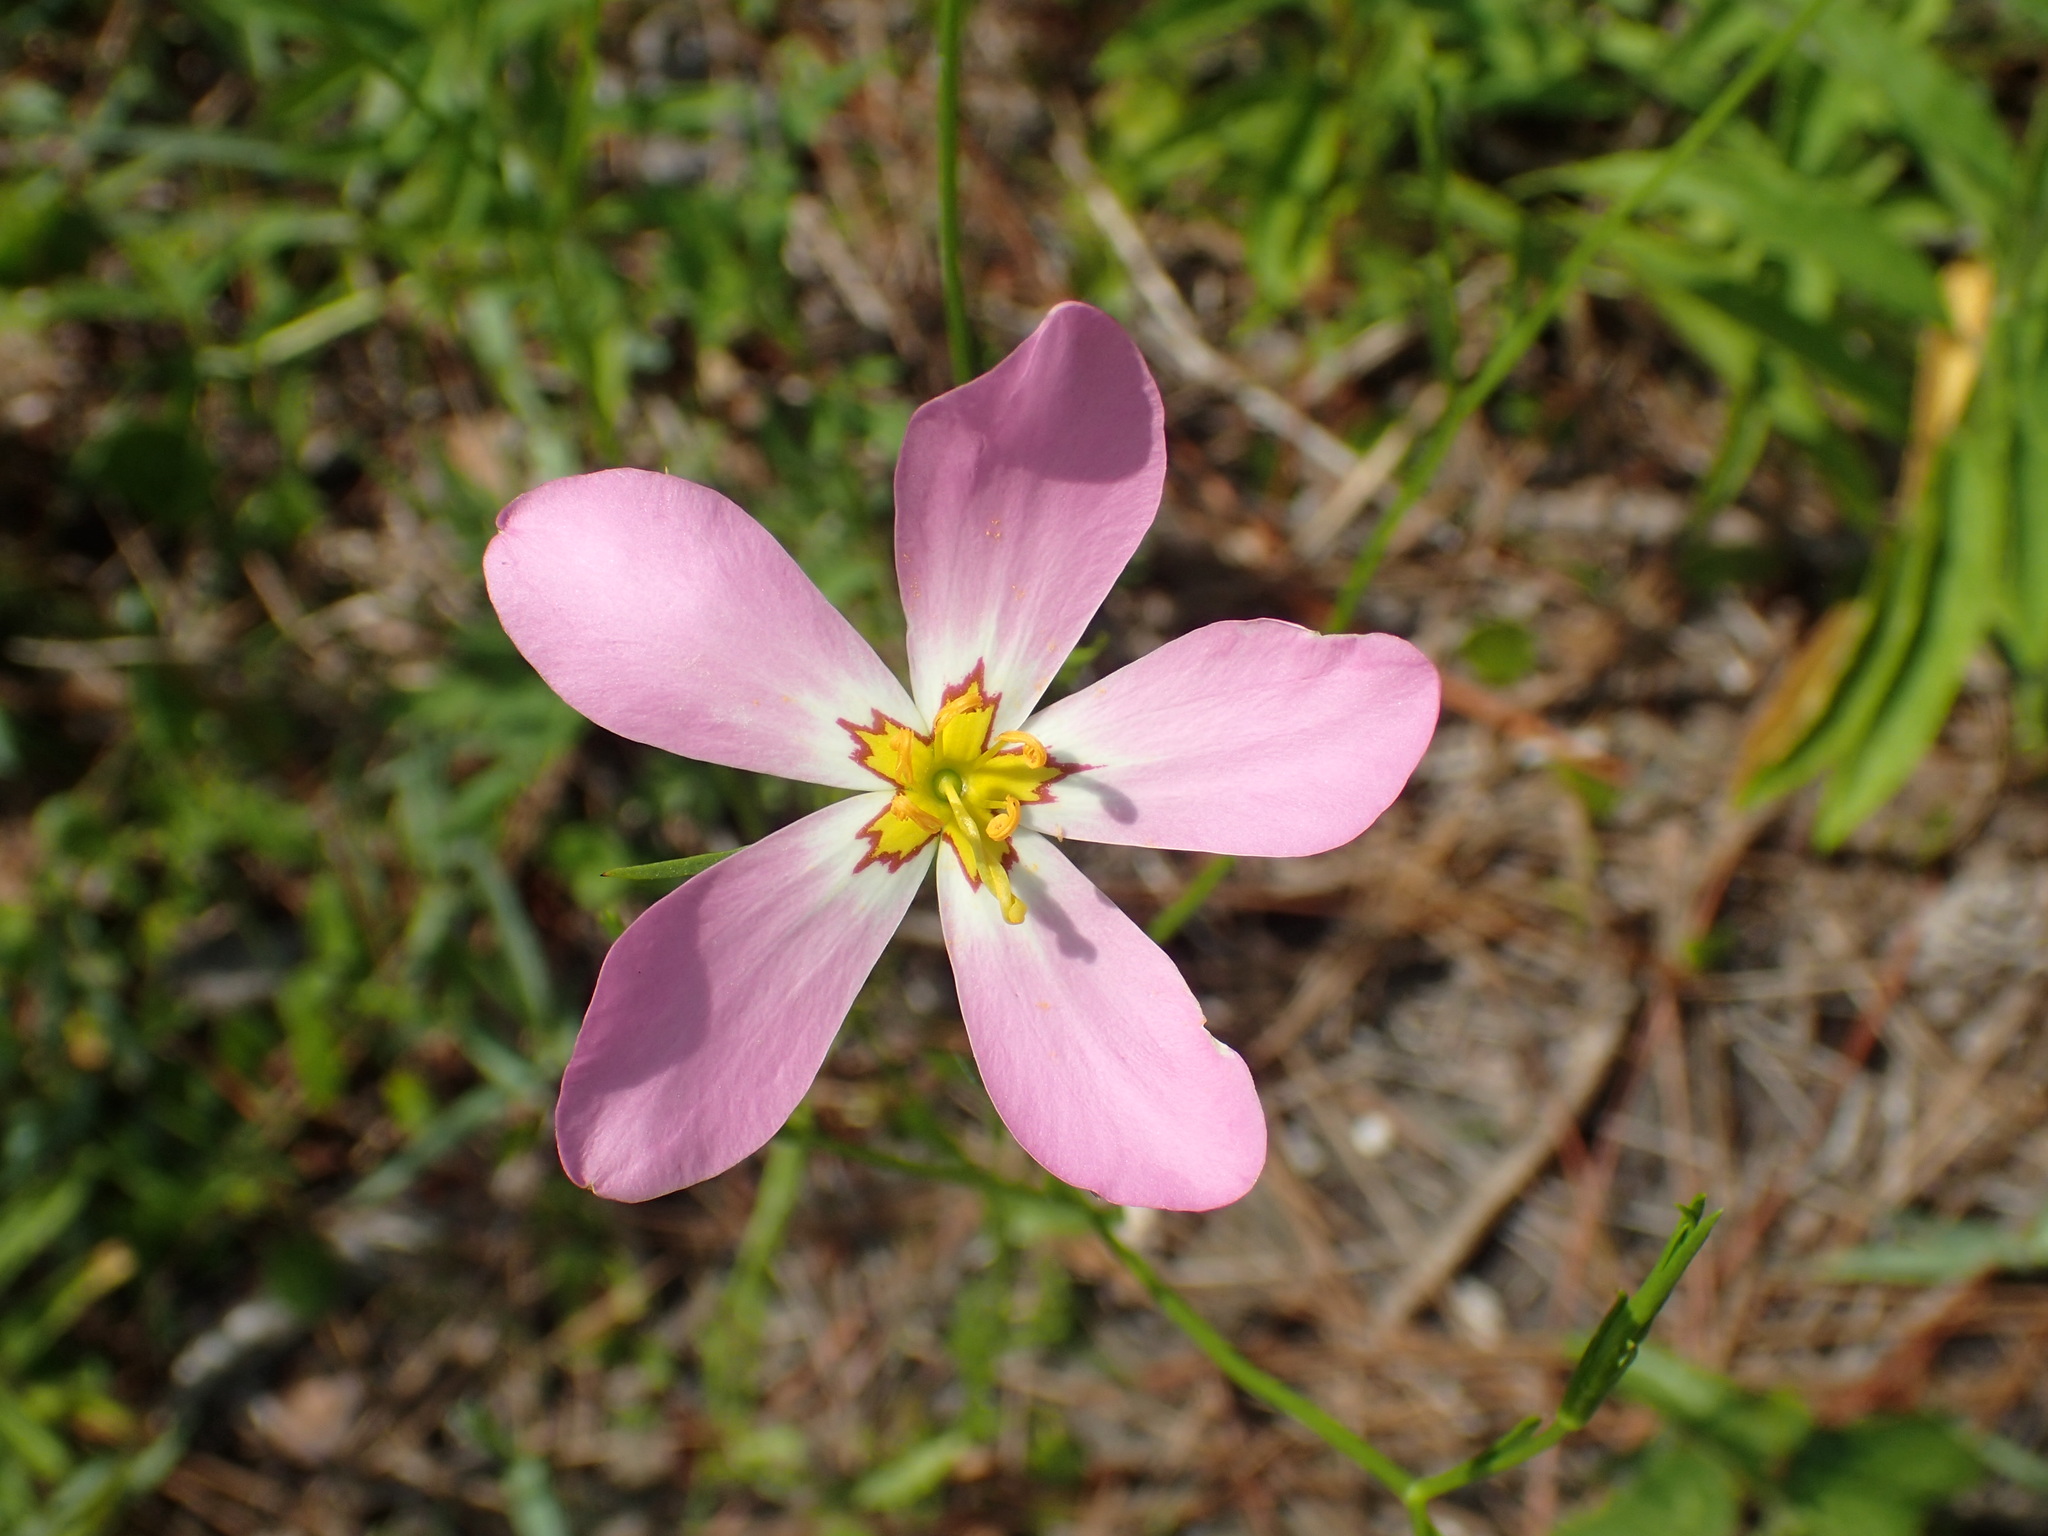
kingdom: Plantae
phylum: Tracheophyta
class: Magnoliopsida
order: Gentianales
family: Gentianaceae
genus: Sabatia
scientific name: Sabatia stellaris
